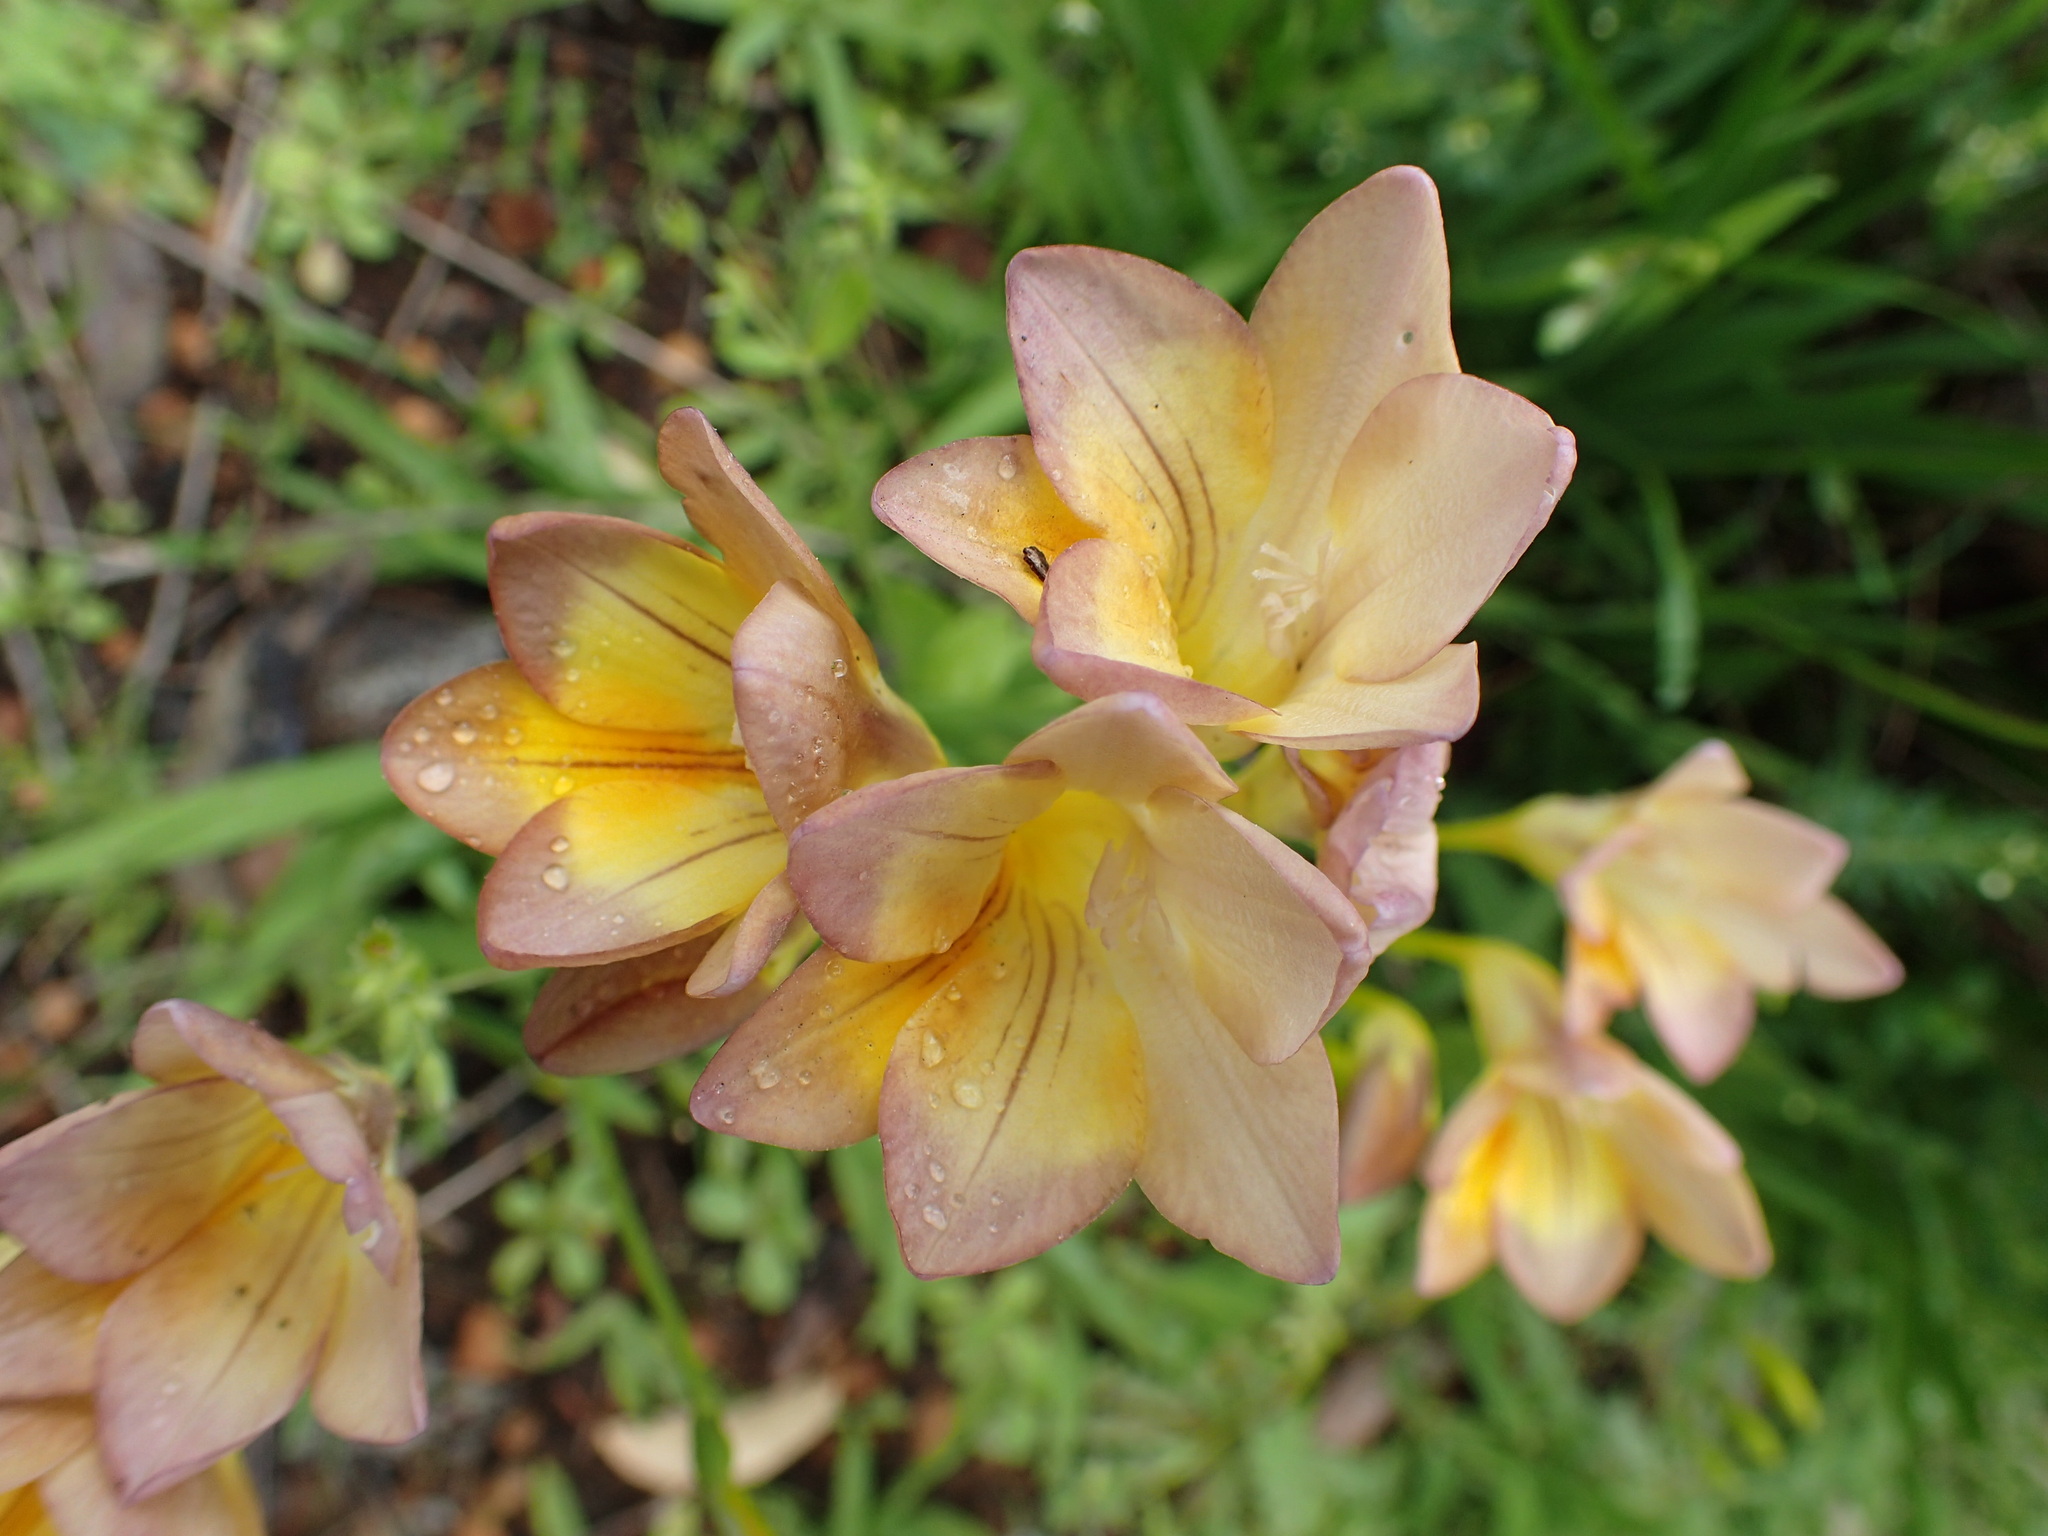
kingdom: Plantae
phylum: Tracheophyta
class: Liliopsida
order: Asparagales
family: Iridaceae
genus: Freesia
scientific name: Freesia
